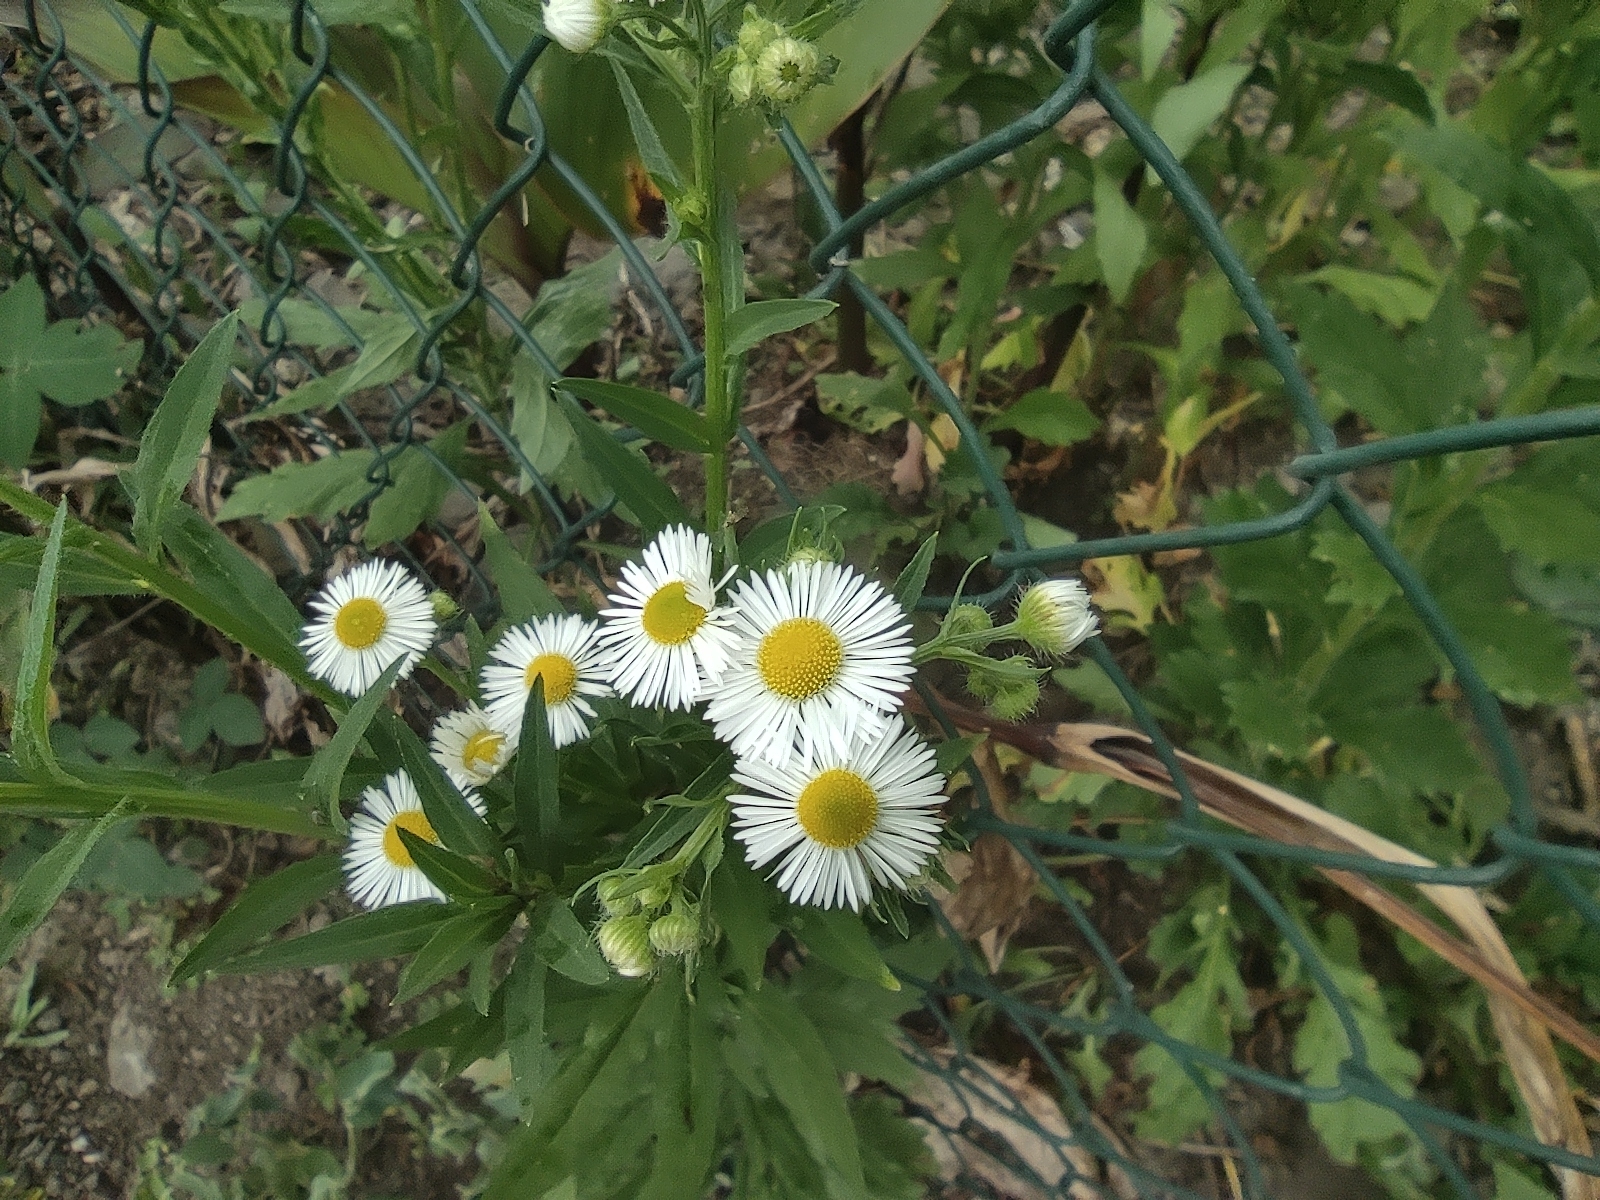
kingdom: Plantae
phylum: Tracheophyta
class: Magnoliopsida
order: Asterales
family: Asteraceae
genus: Erigeron
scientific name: Erigeron annuus
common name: Tall fleabane
